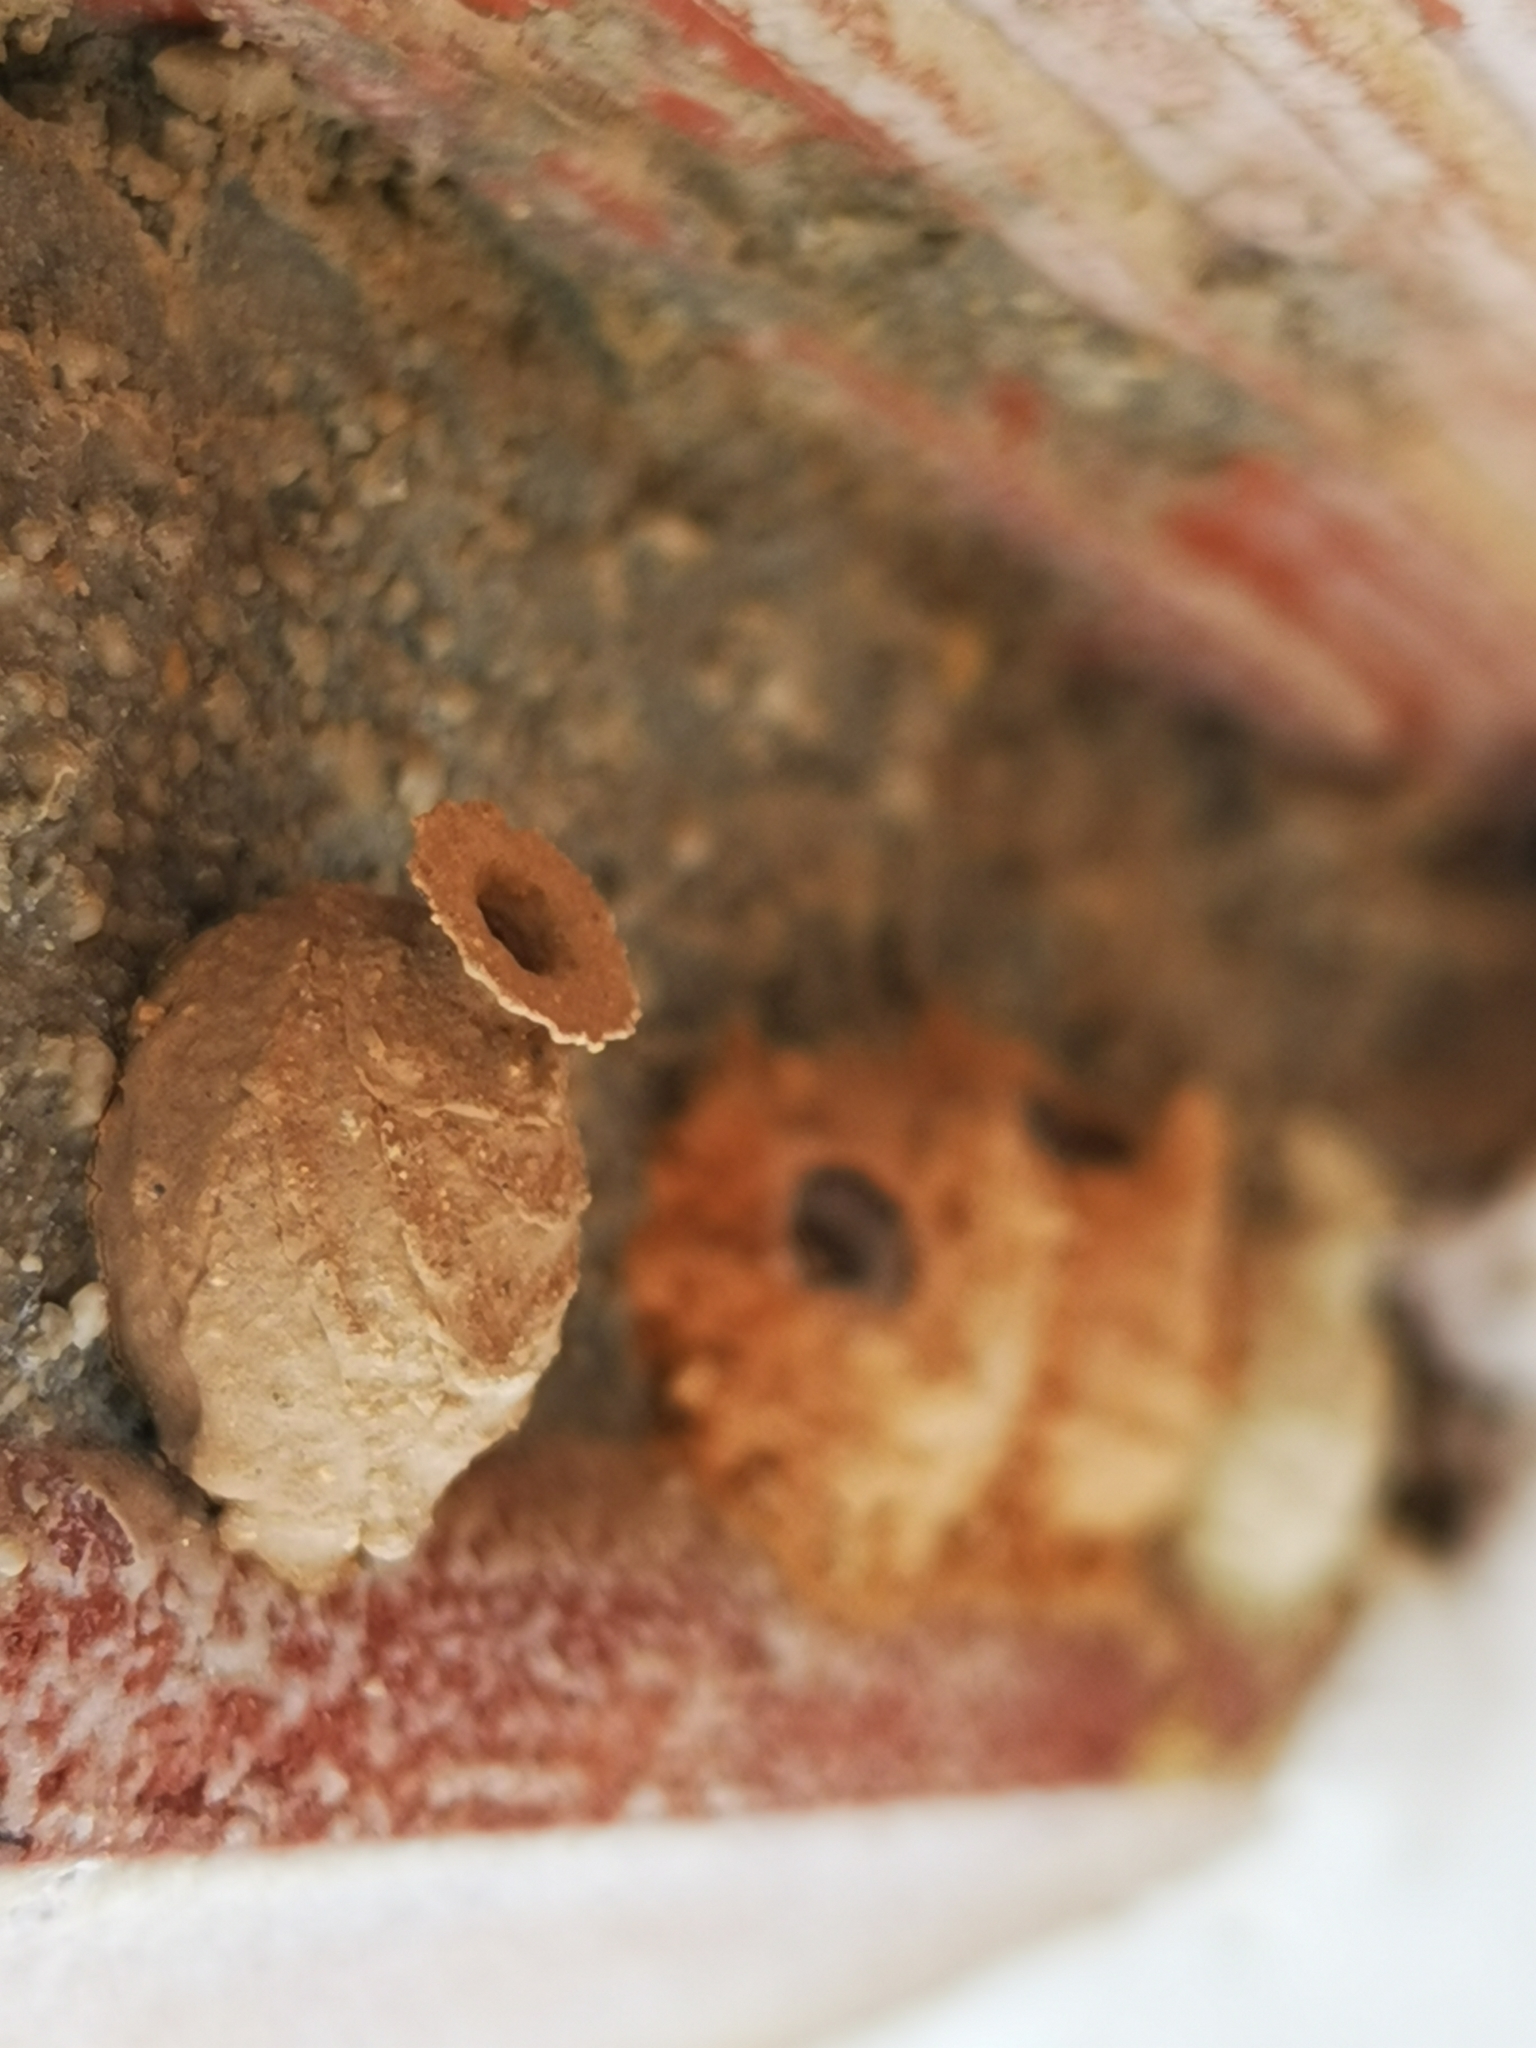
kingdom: Animalia
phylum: Arthropoda
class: Insecta
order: Hymenoptera
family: Eumenidae
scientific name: Eumenidae
